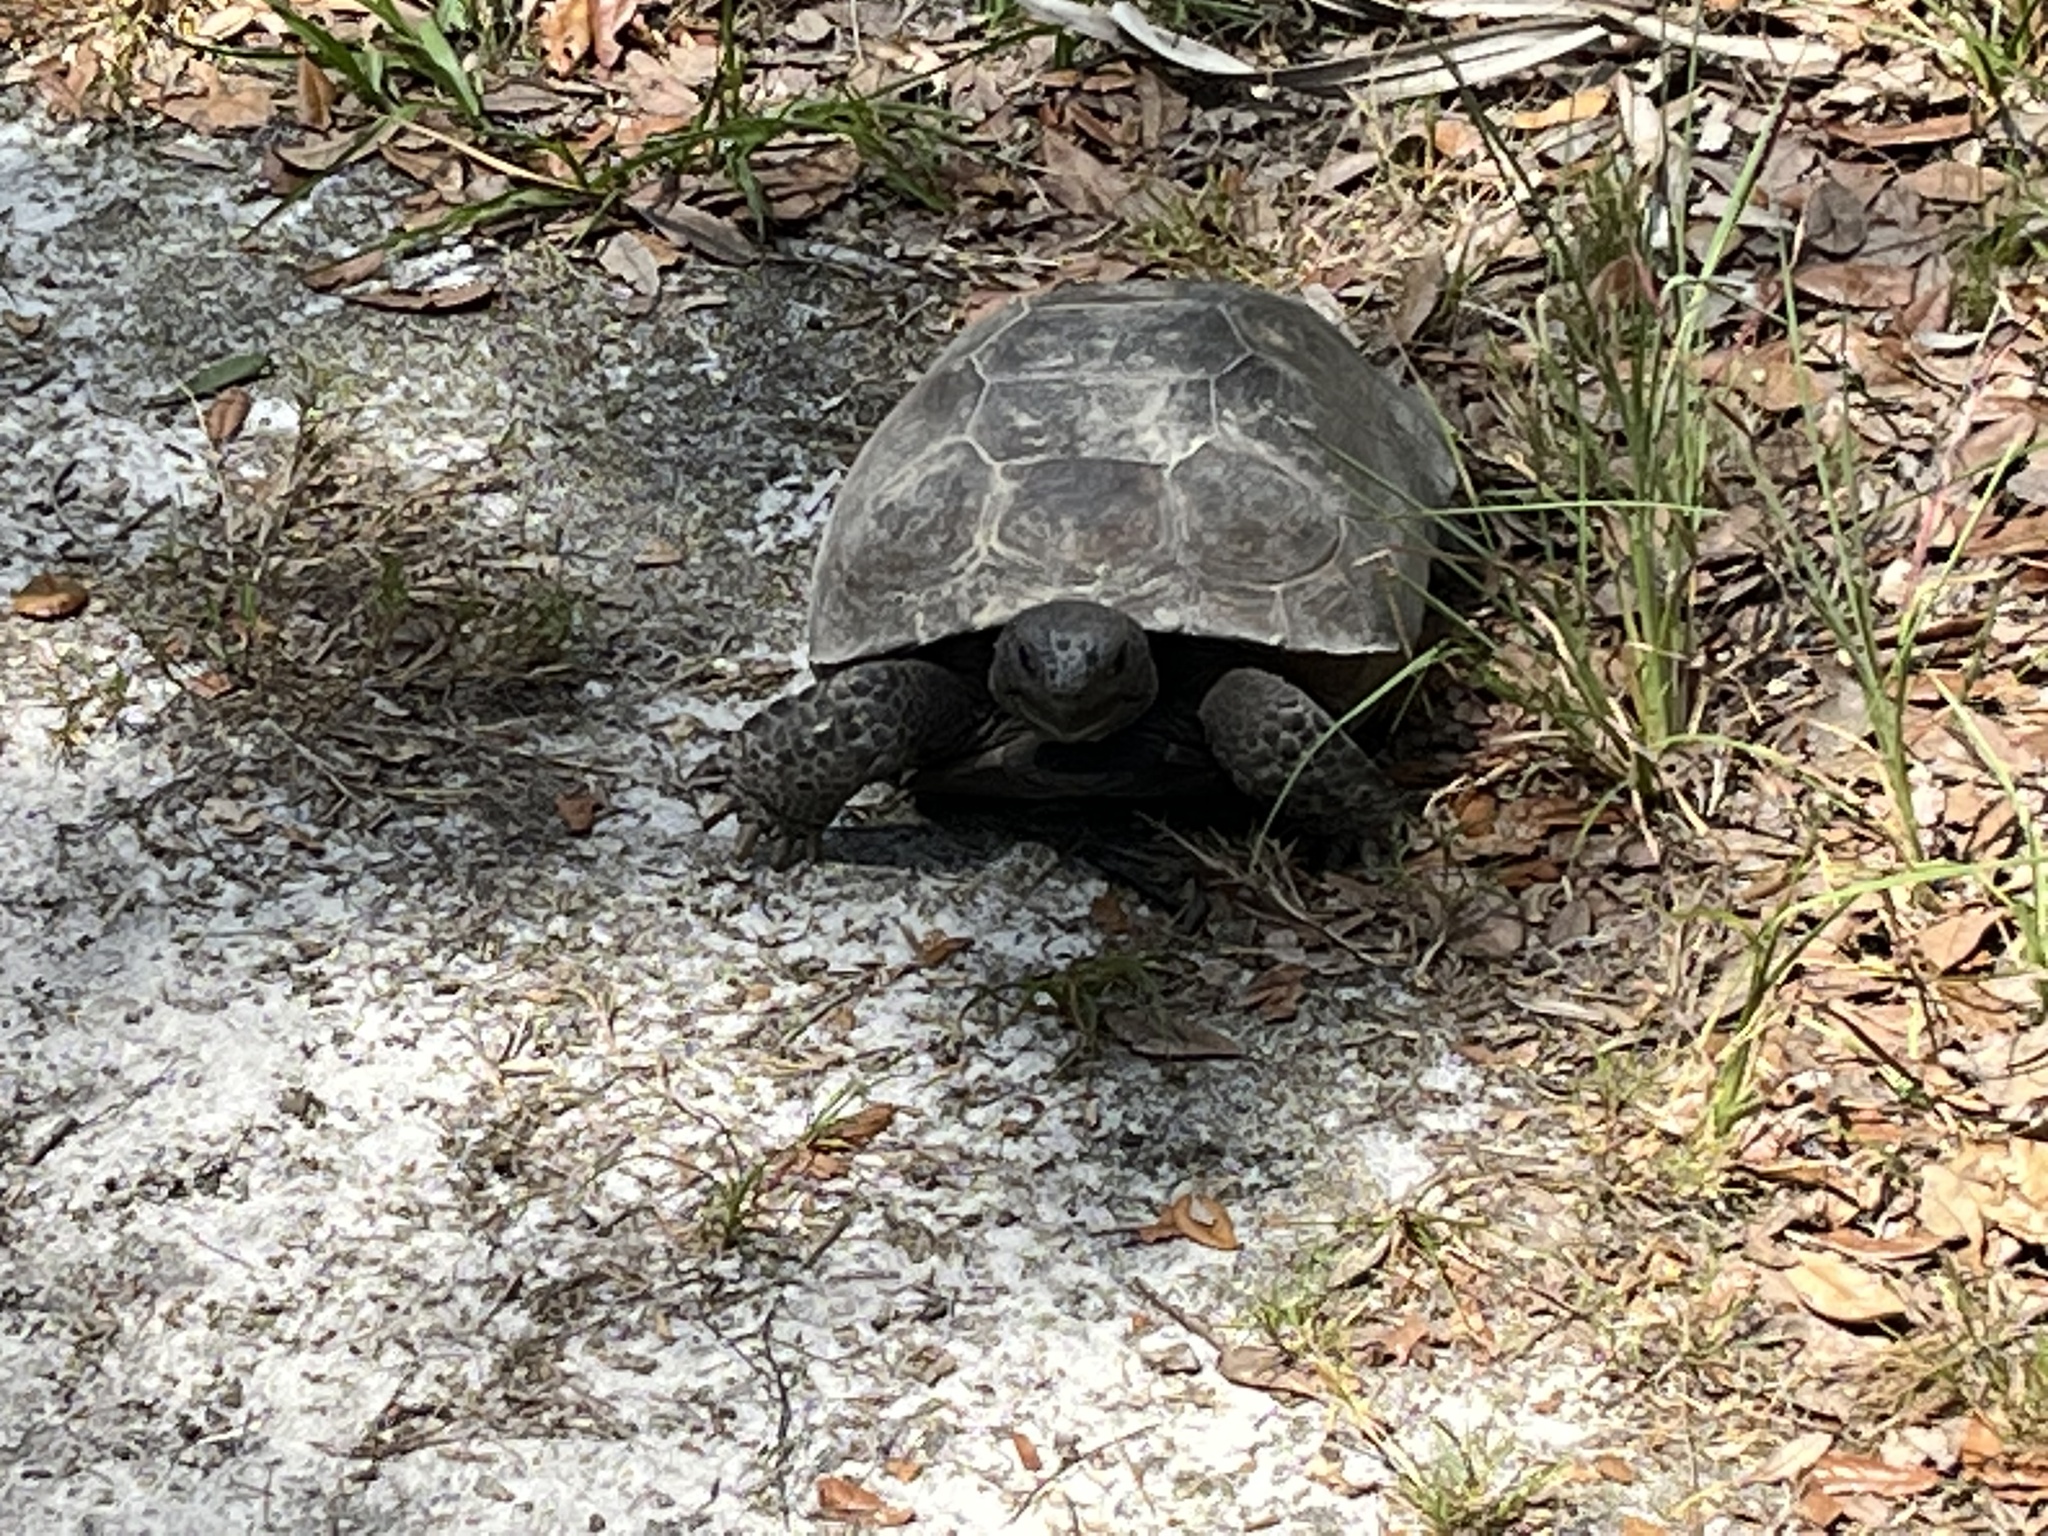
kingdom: Animalia
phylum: Chordata
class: Testudines
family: Testudinidae
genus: Gopherus
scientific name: Gopherus polyphemus
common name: Florida gopher tortoise
